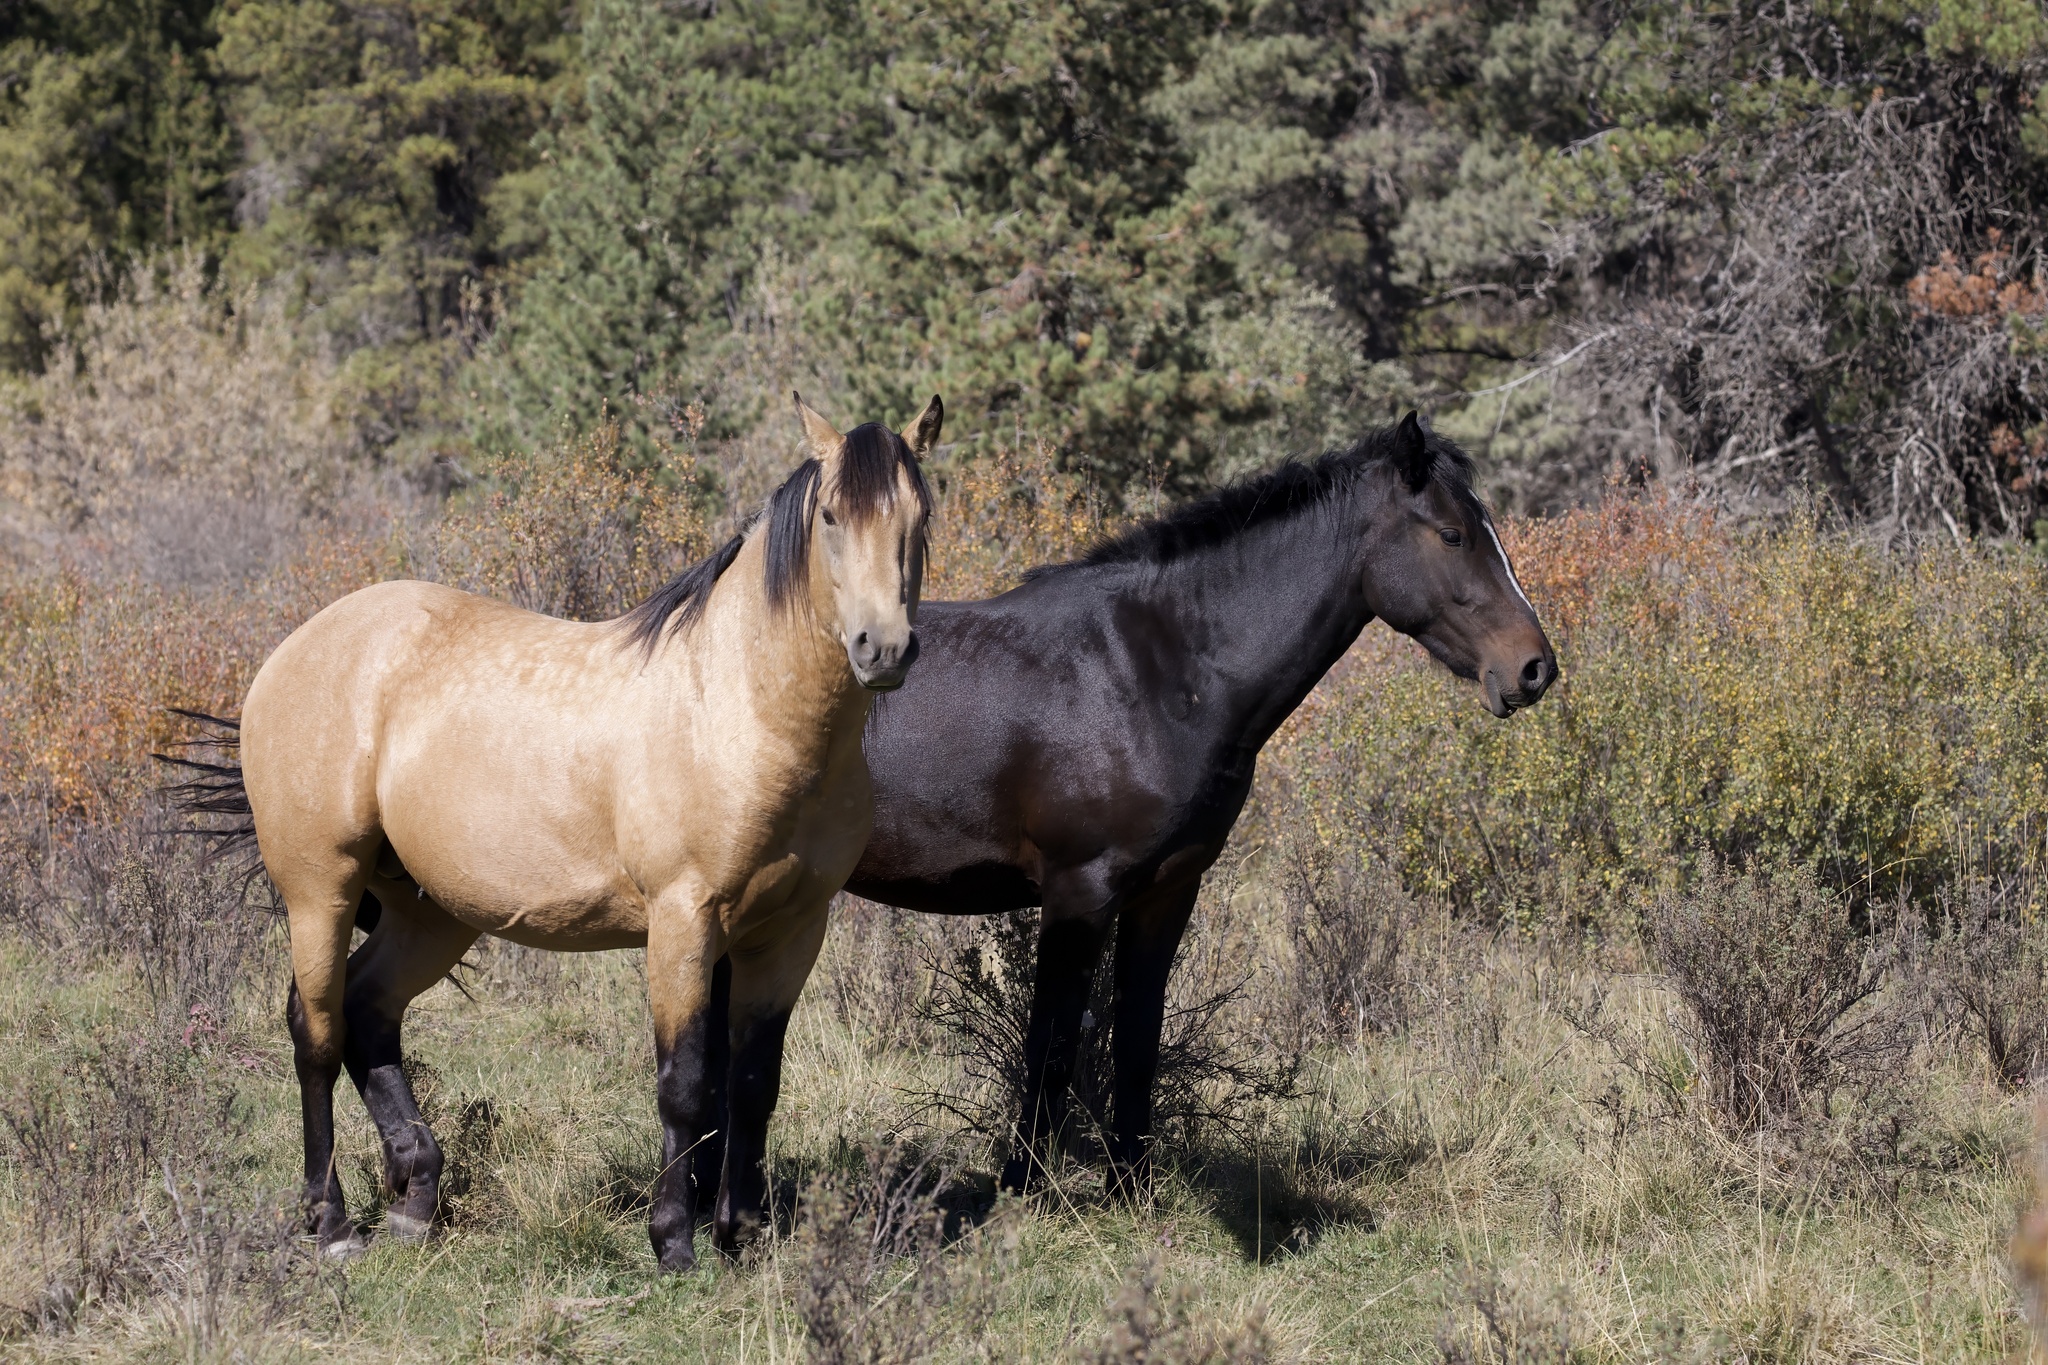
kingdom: Animalia
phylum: Chordata
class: Mammalia
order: Perissodactyla
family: Equidae
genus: Equus
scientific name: Equus caballus
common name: Horse
